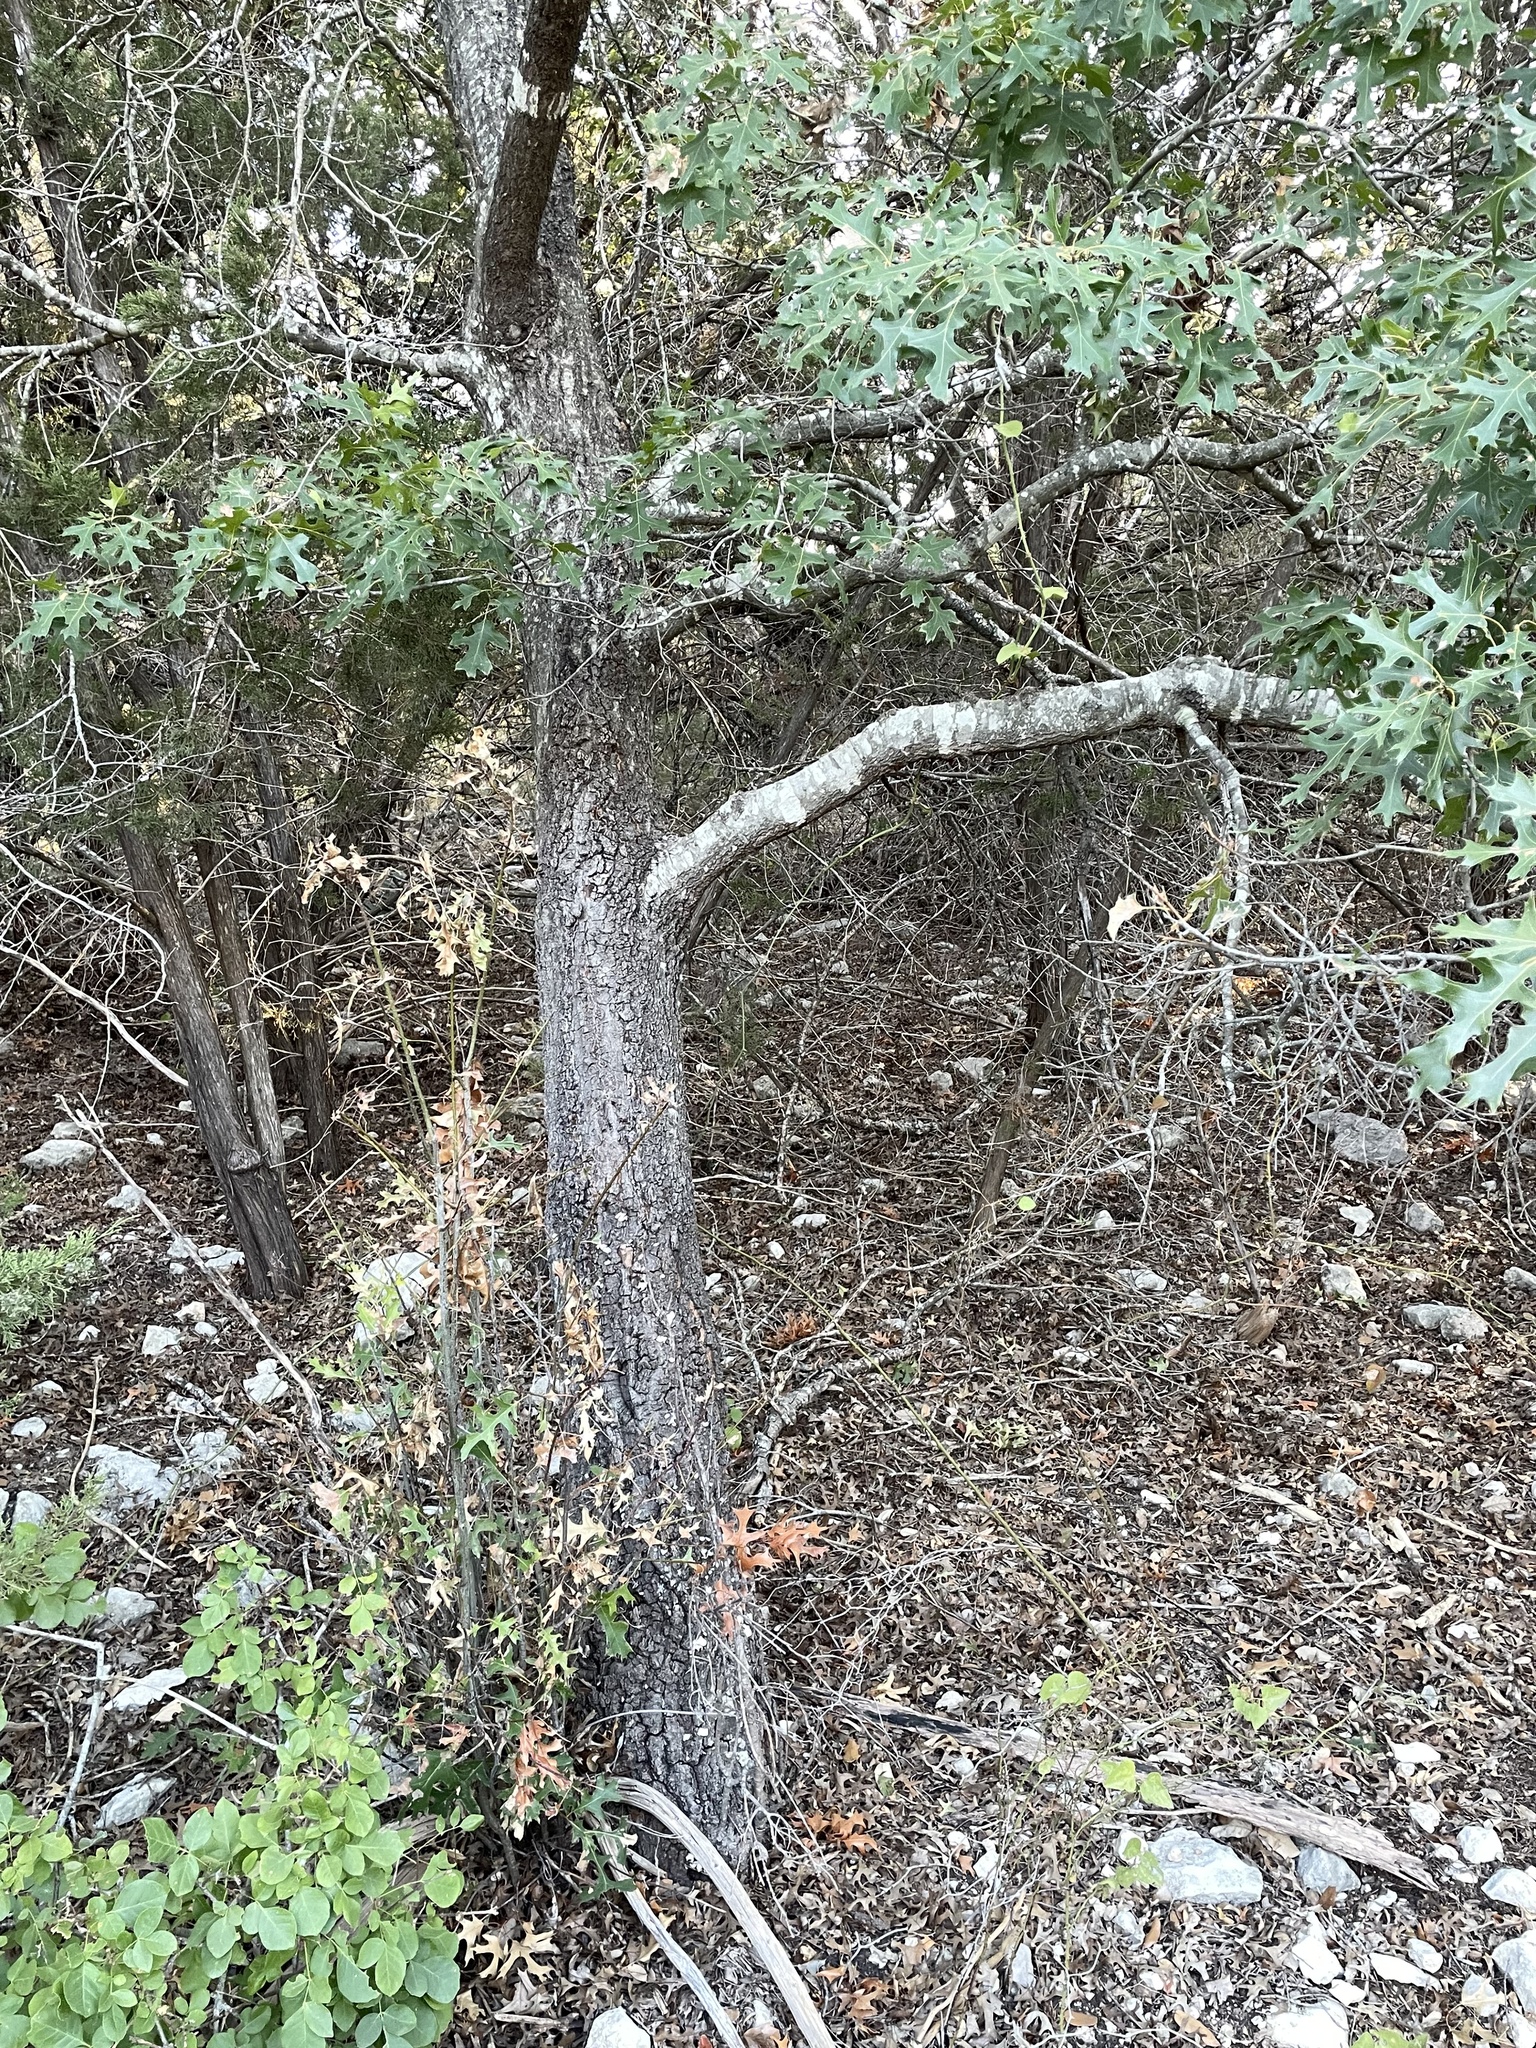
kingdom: Plantae
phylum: Tracheophyta
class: Magnoliopsida
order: Fagales
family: Fagaceae
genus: Quercus
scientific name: Quercus buckleyi
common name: Buckley oak
